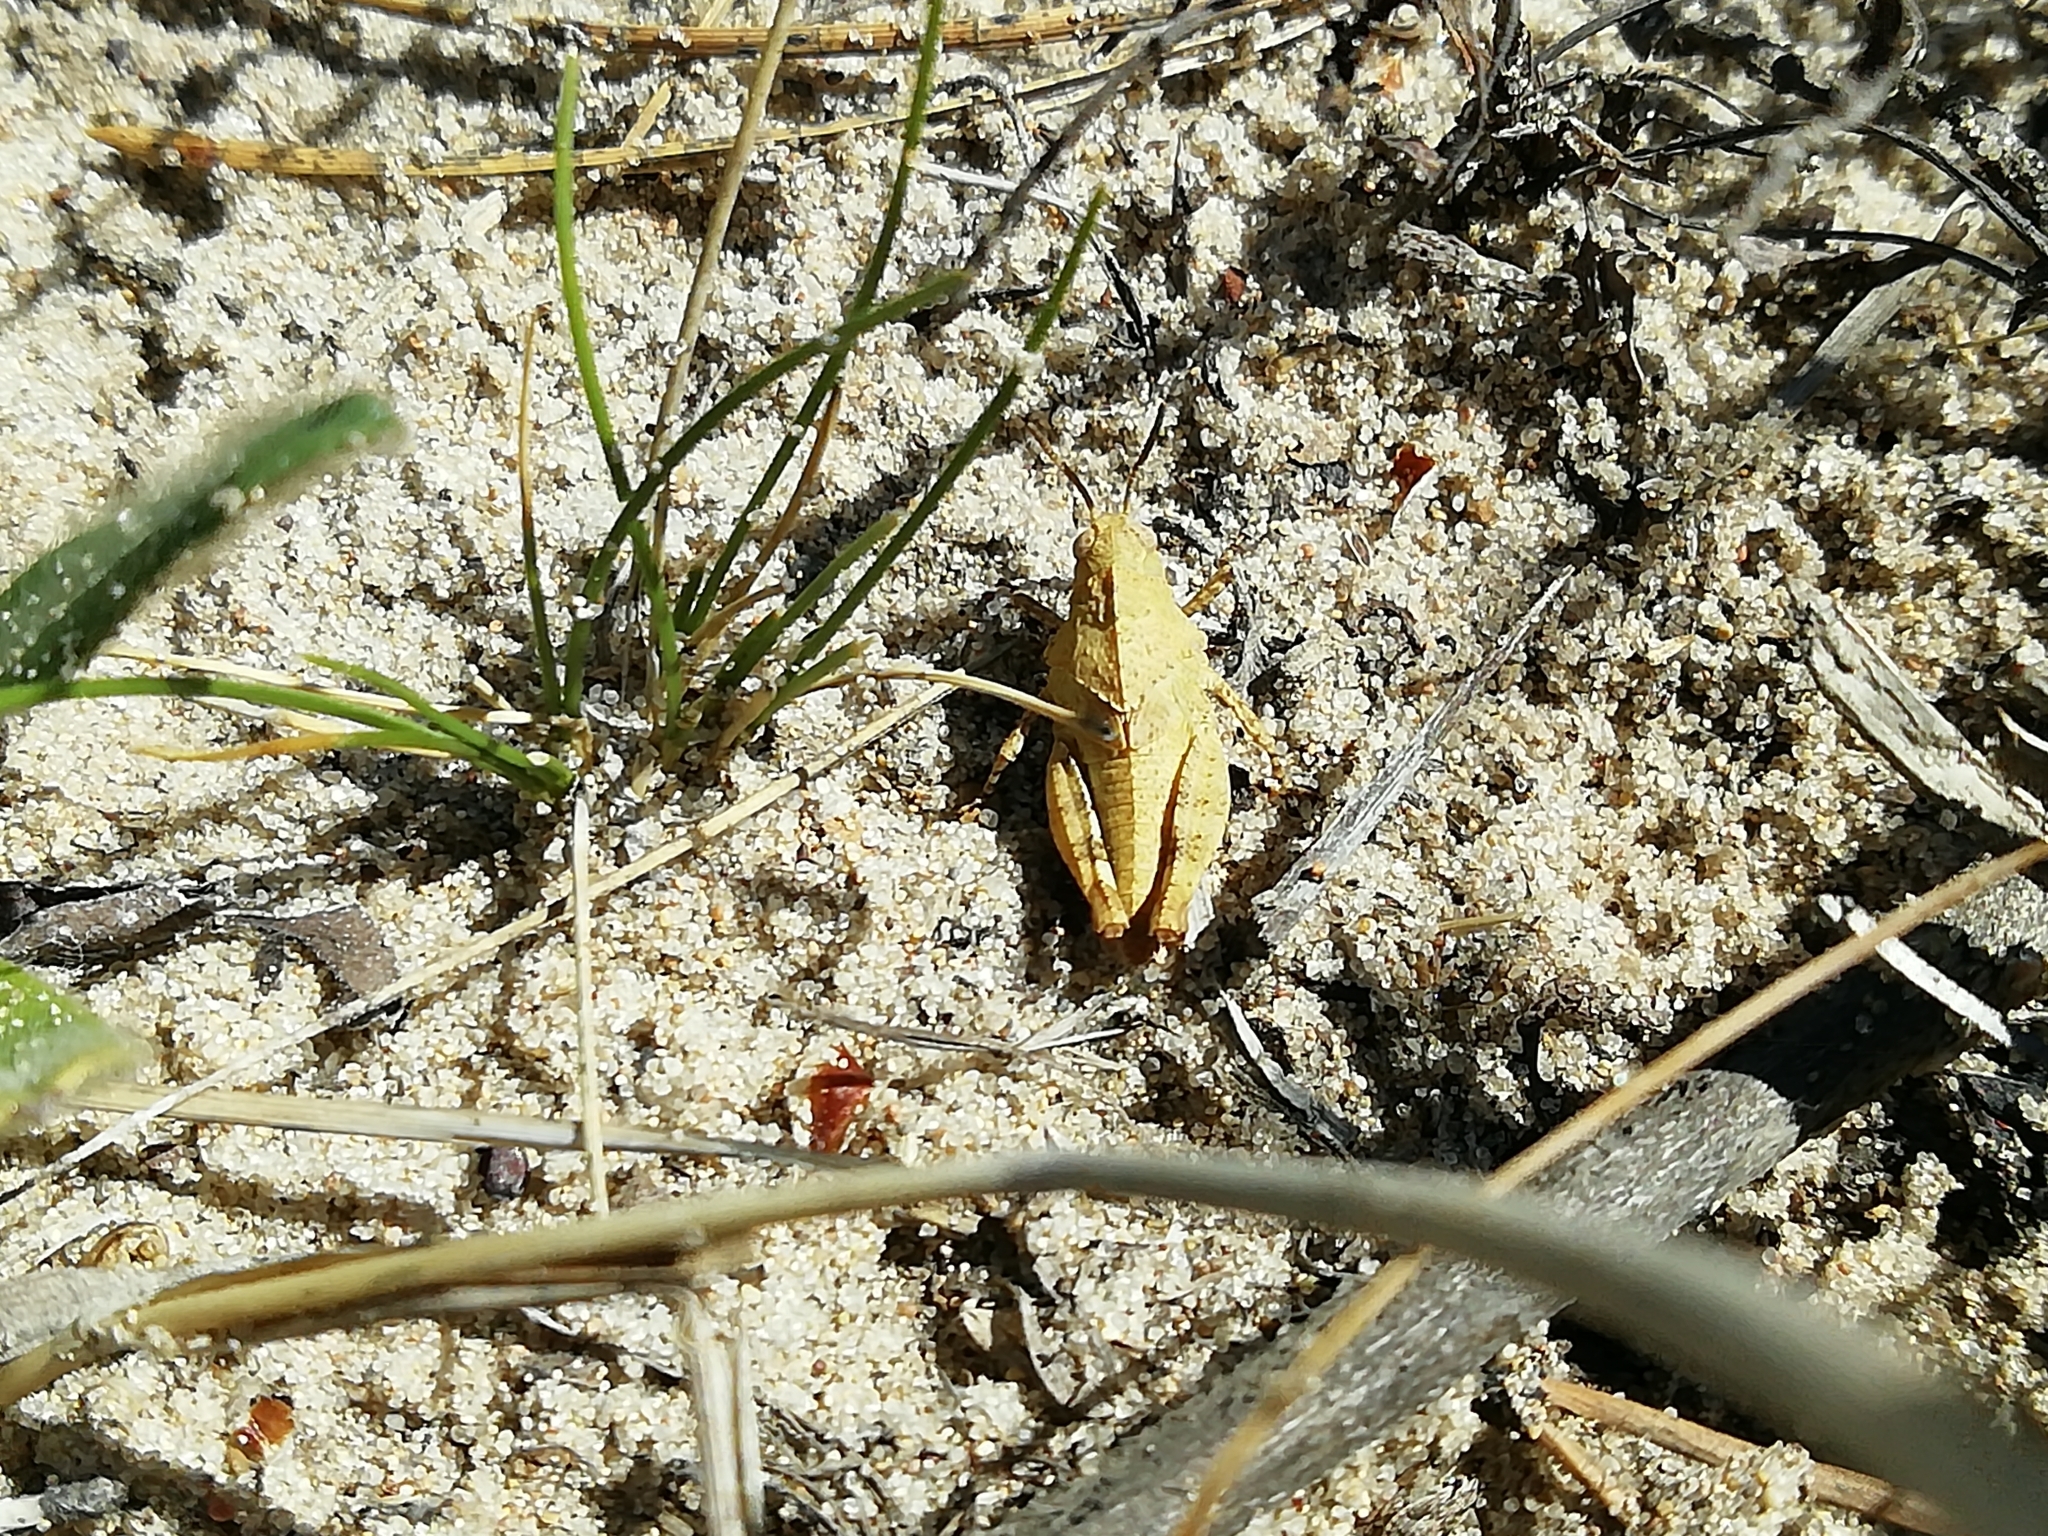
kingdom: Animalia
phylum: Arthropoda
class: Insecta
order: Orthoptera
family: Acrididae
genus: Oedipoda
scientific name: Oedipoda caerulescens
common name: Blue-winged grasshopper
